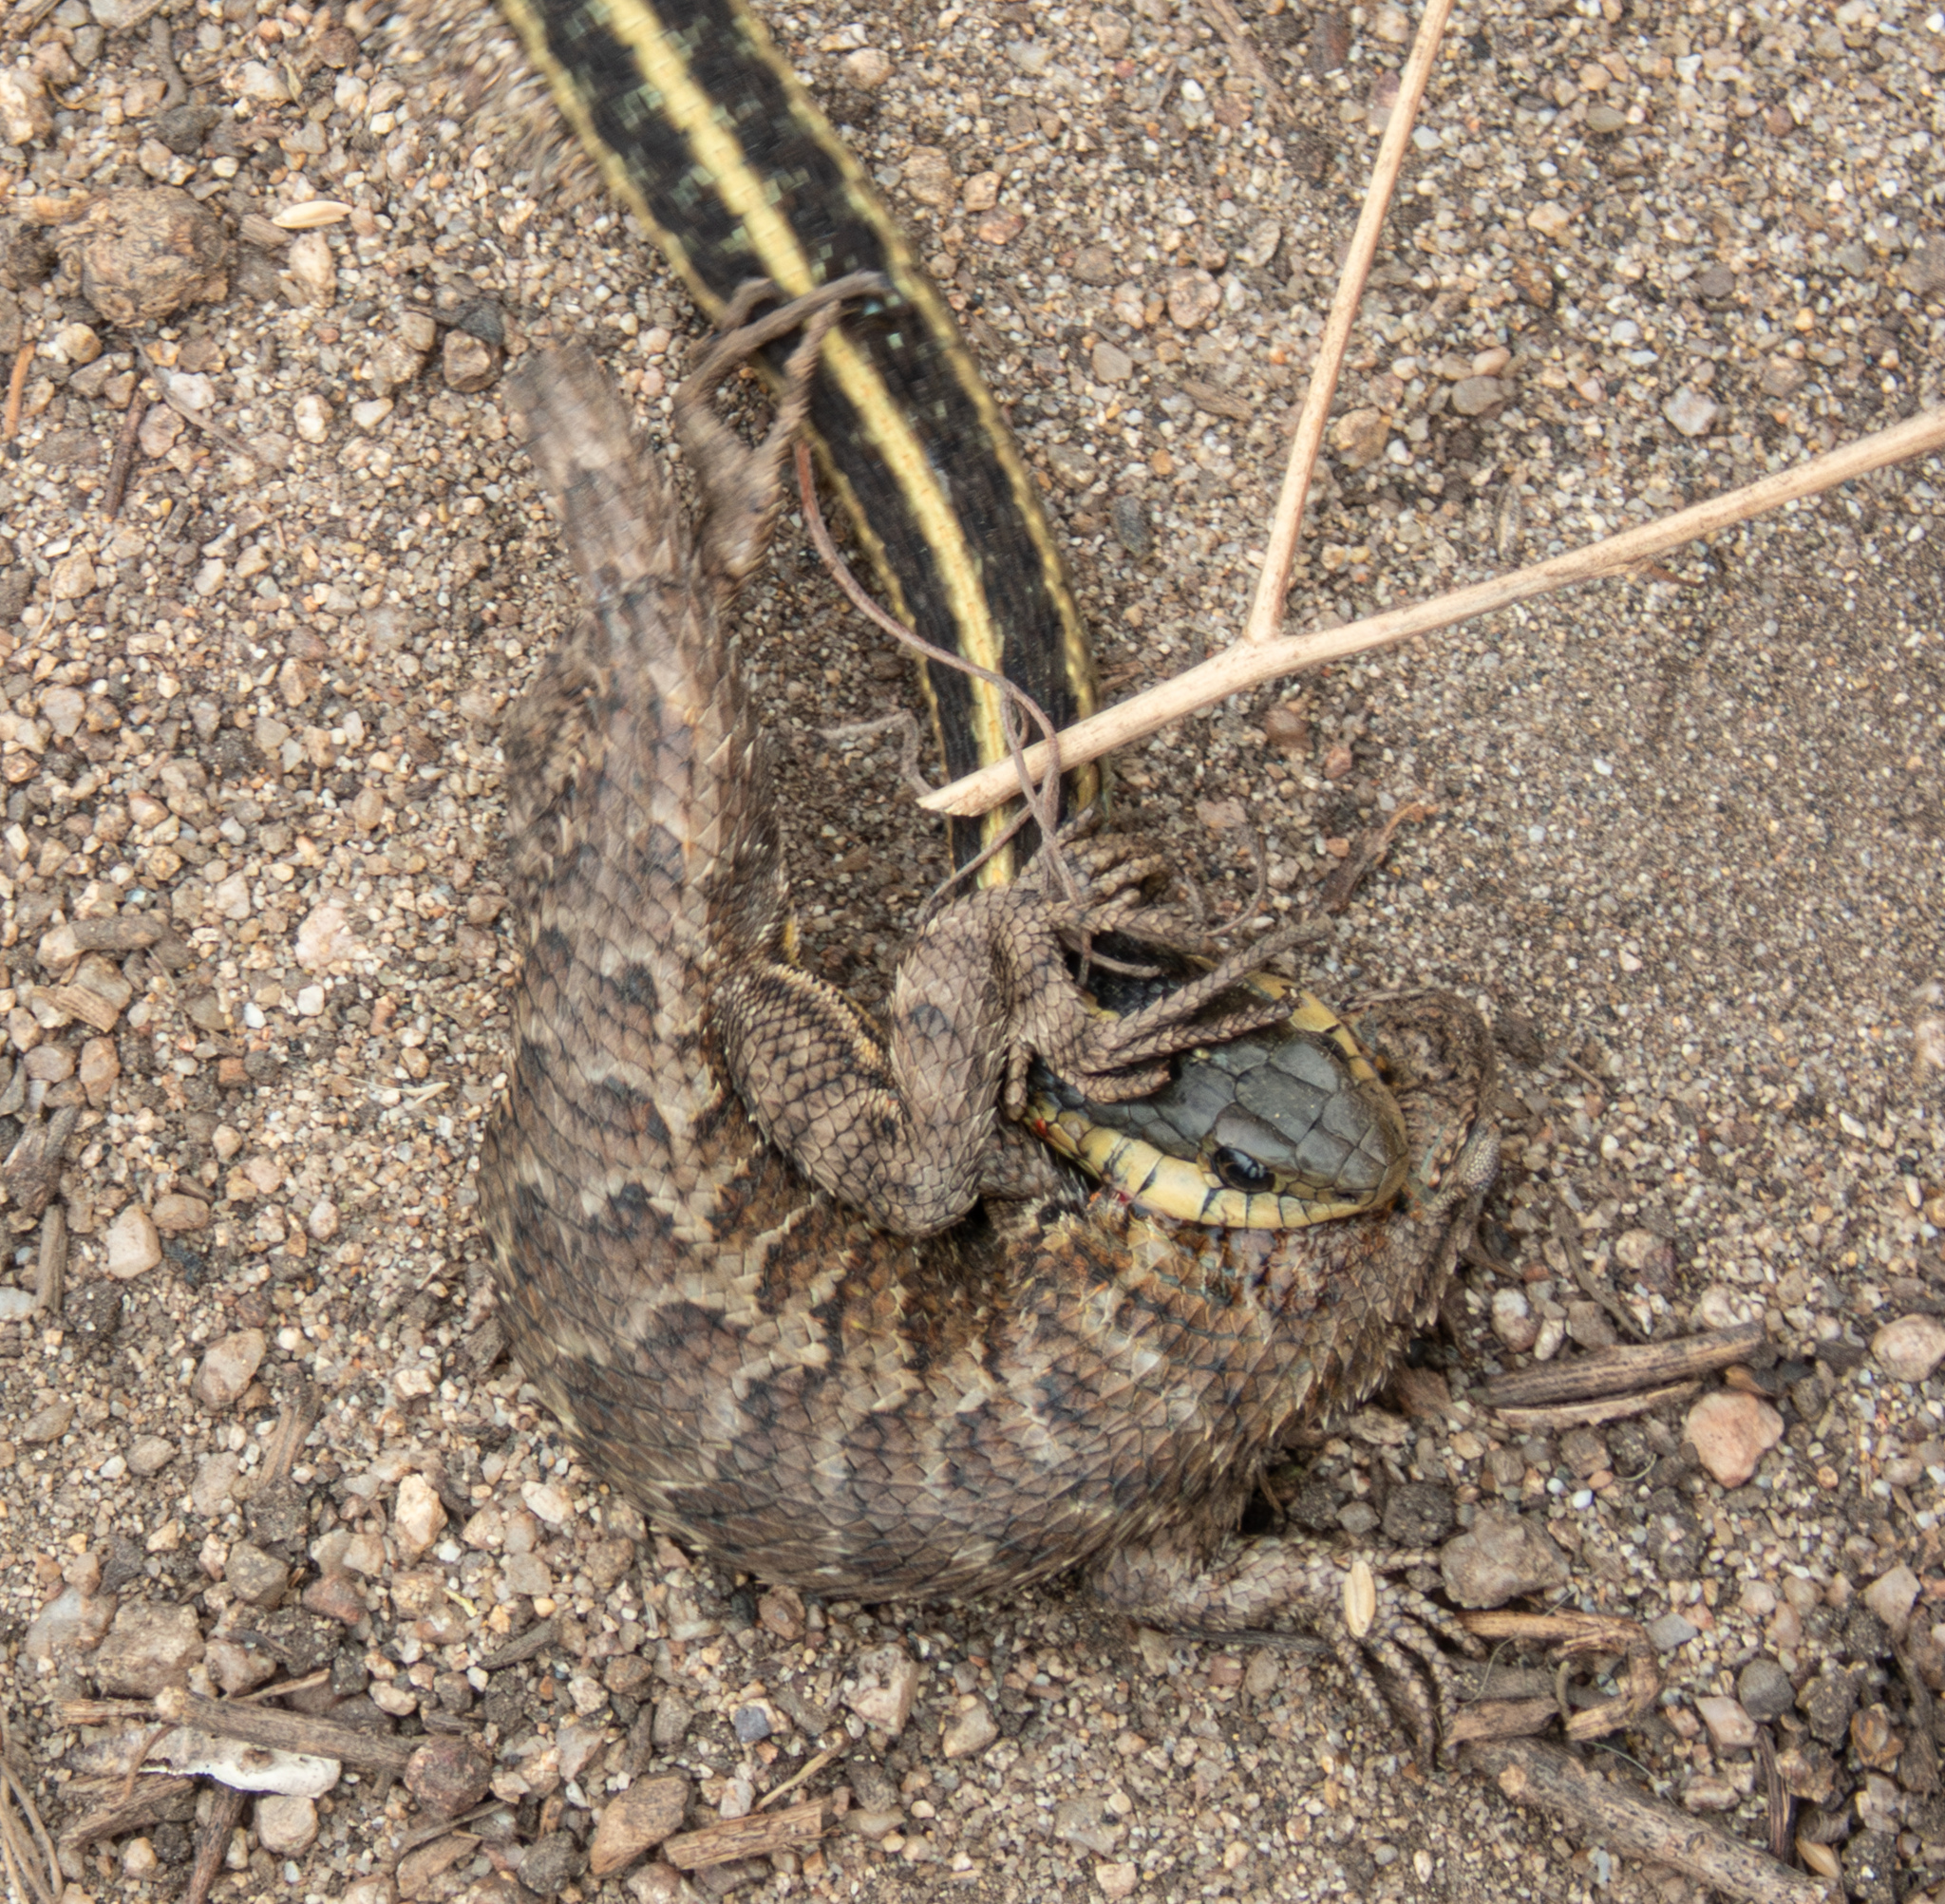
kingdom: Animalia
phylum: Chordata
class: Squamata
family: Colubridae
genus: Thamnophis
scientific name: Thamnophis elegans
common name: Western terrestrial garter snake
